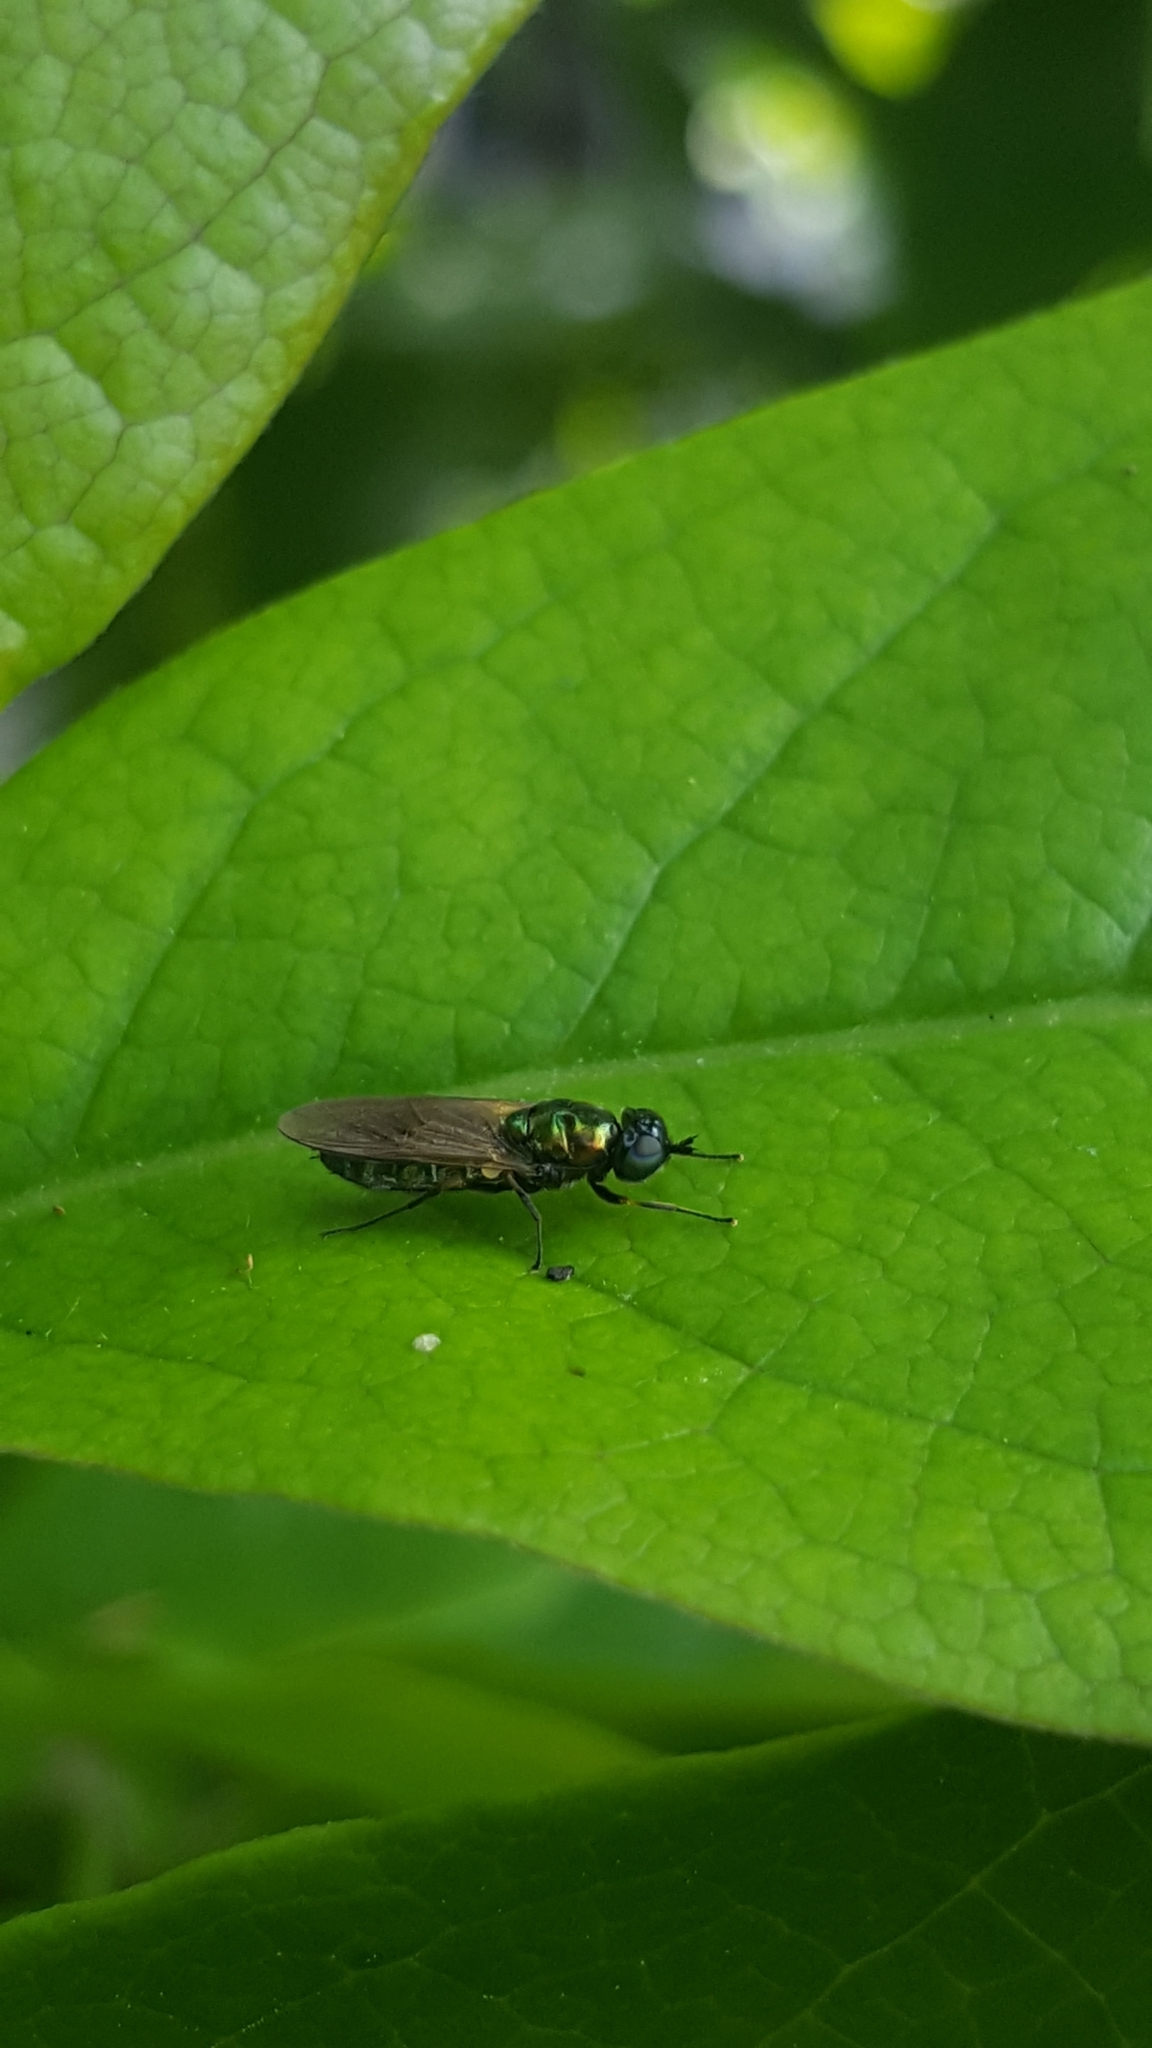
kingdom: Animalia
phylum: Arthropoda
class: Insecta
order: Diptera
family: Stratiomyidae
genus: Chloromyia
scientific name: Chloromyia formosa
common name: Soldier fly
